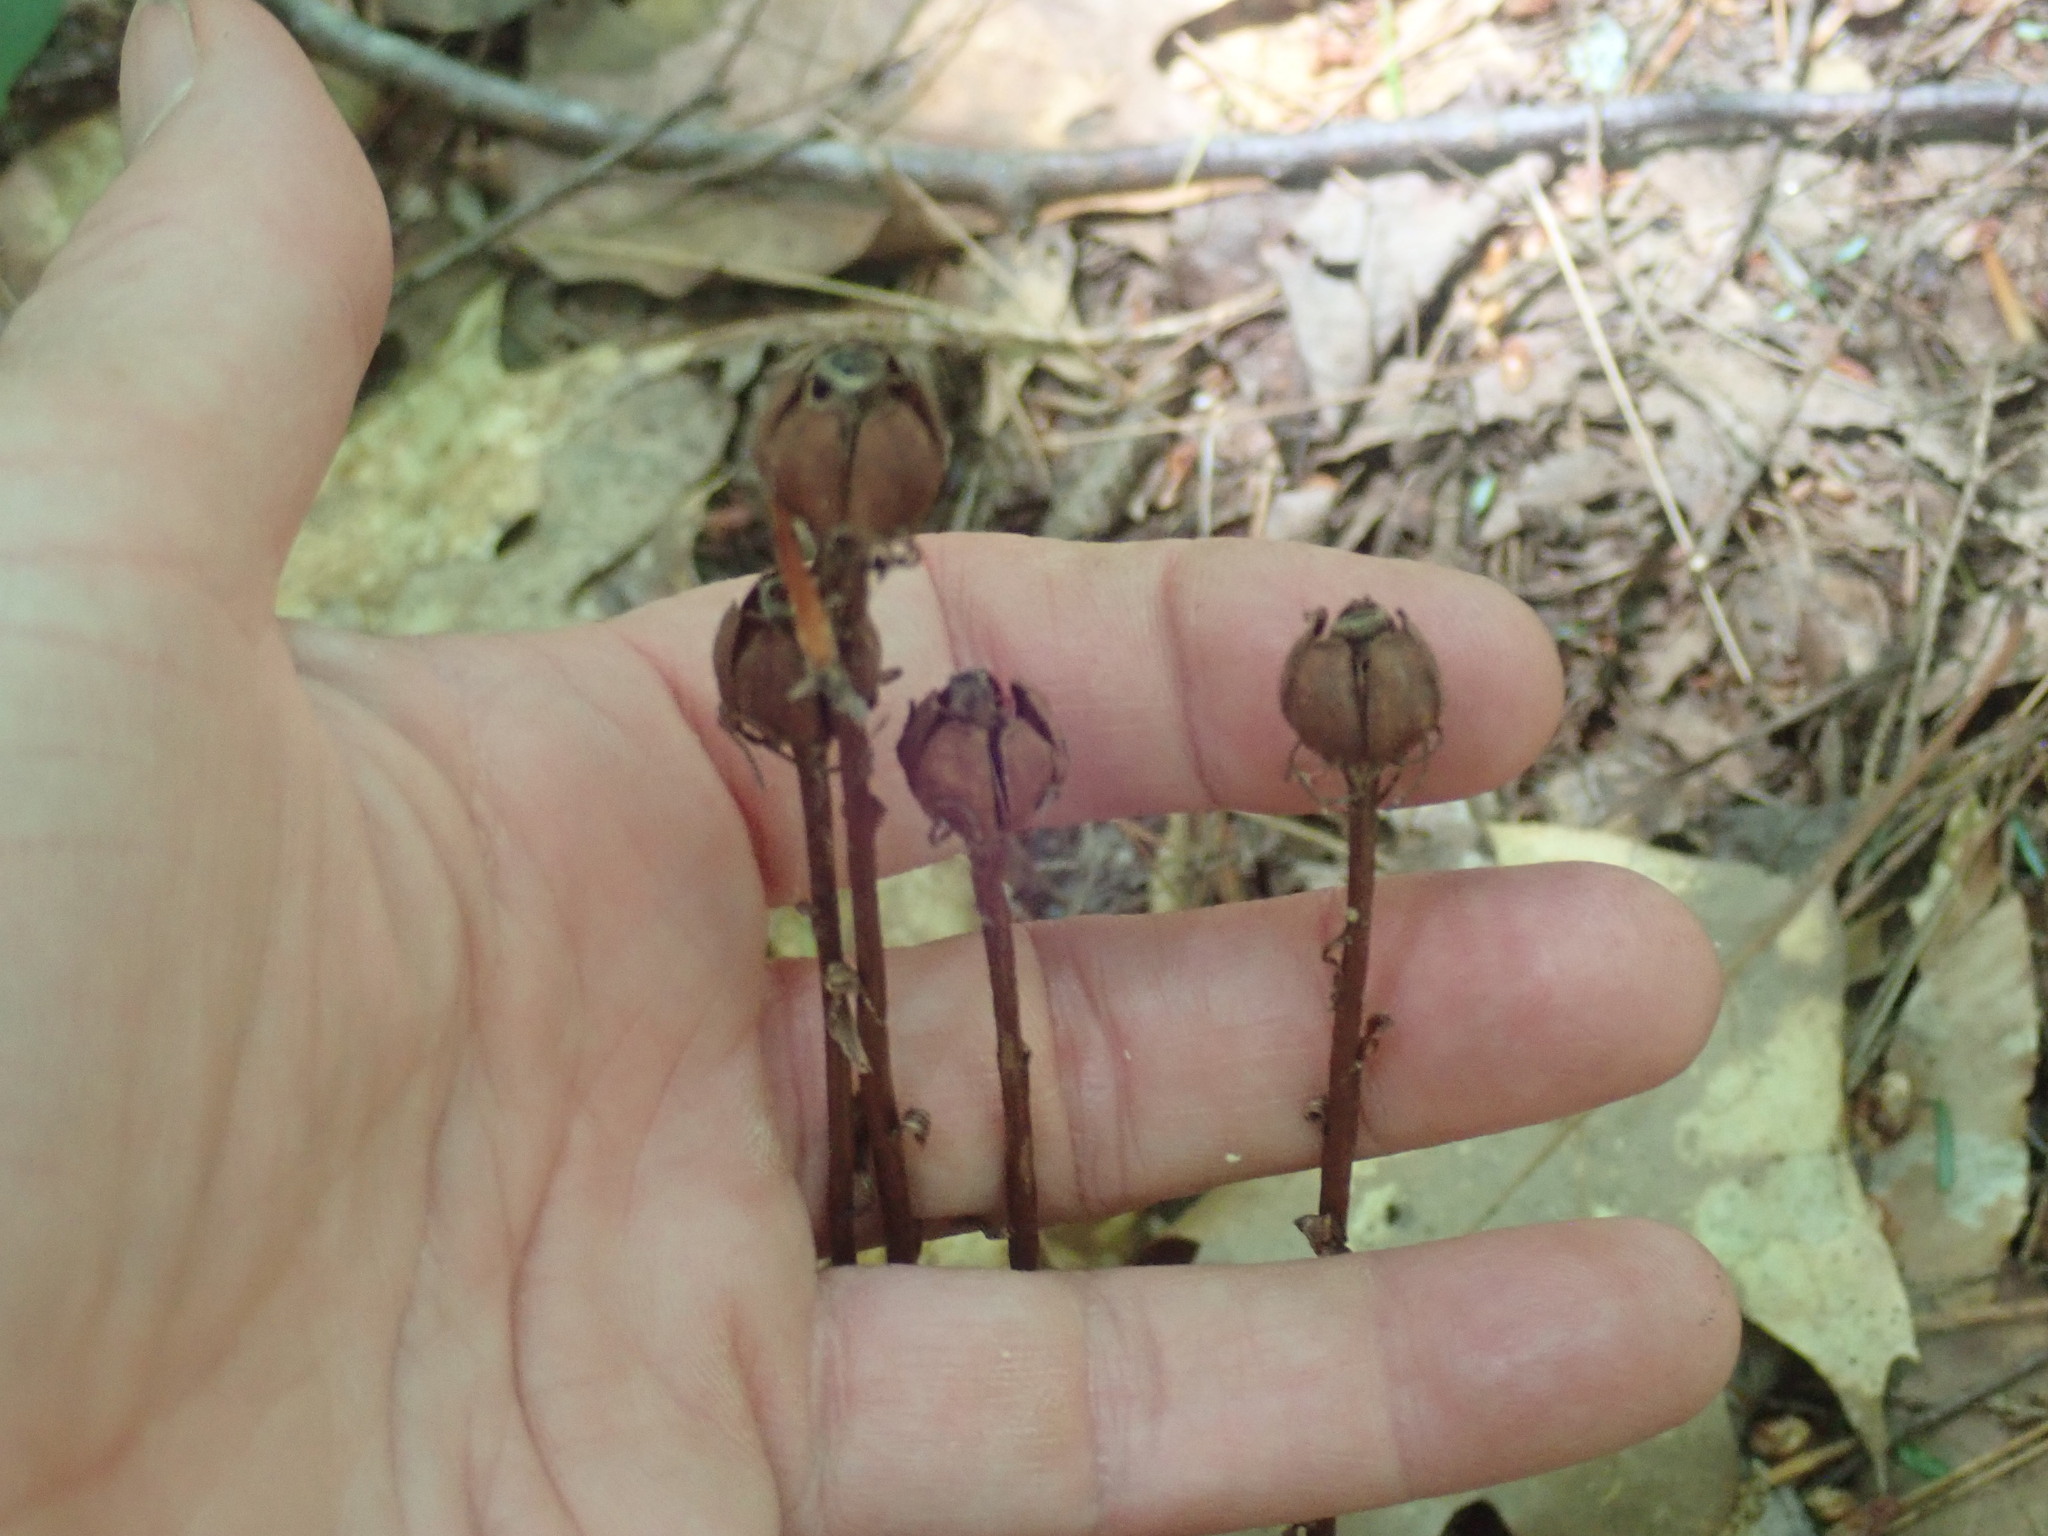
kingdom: Plantae
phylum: Tracheophyta
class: Magnoliopsida
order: Ericales
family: Ericaceae
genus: Monotropa
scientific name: Monotropa uniflora
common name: Convulsion root
